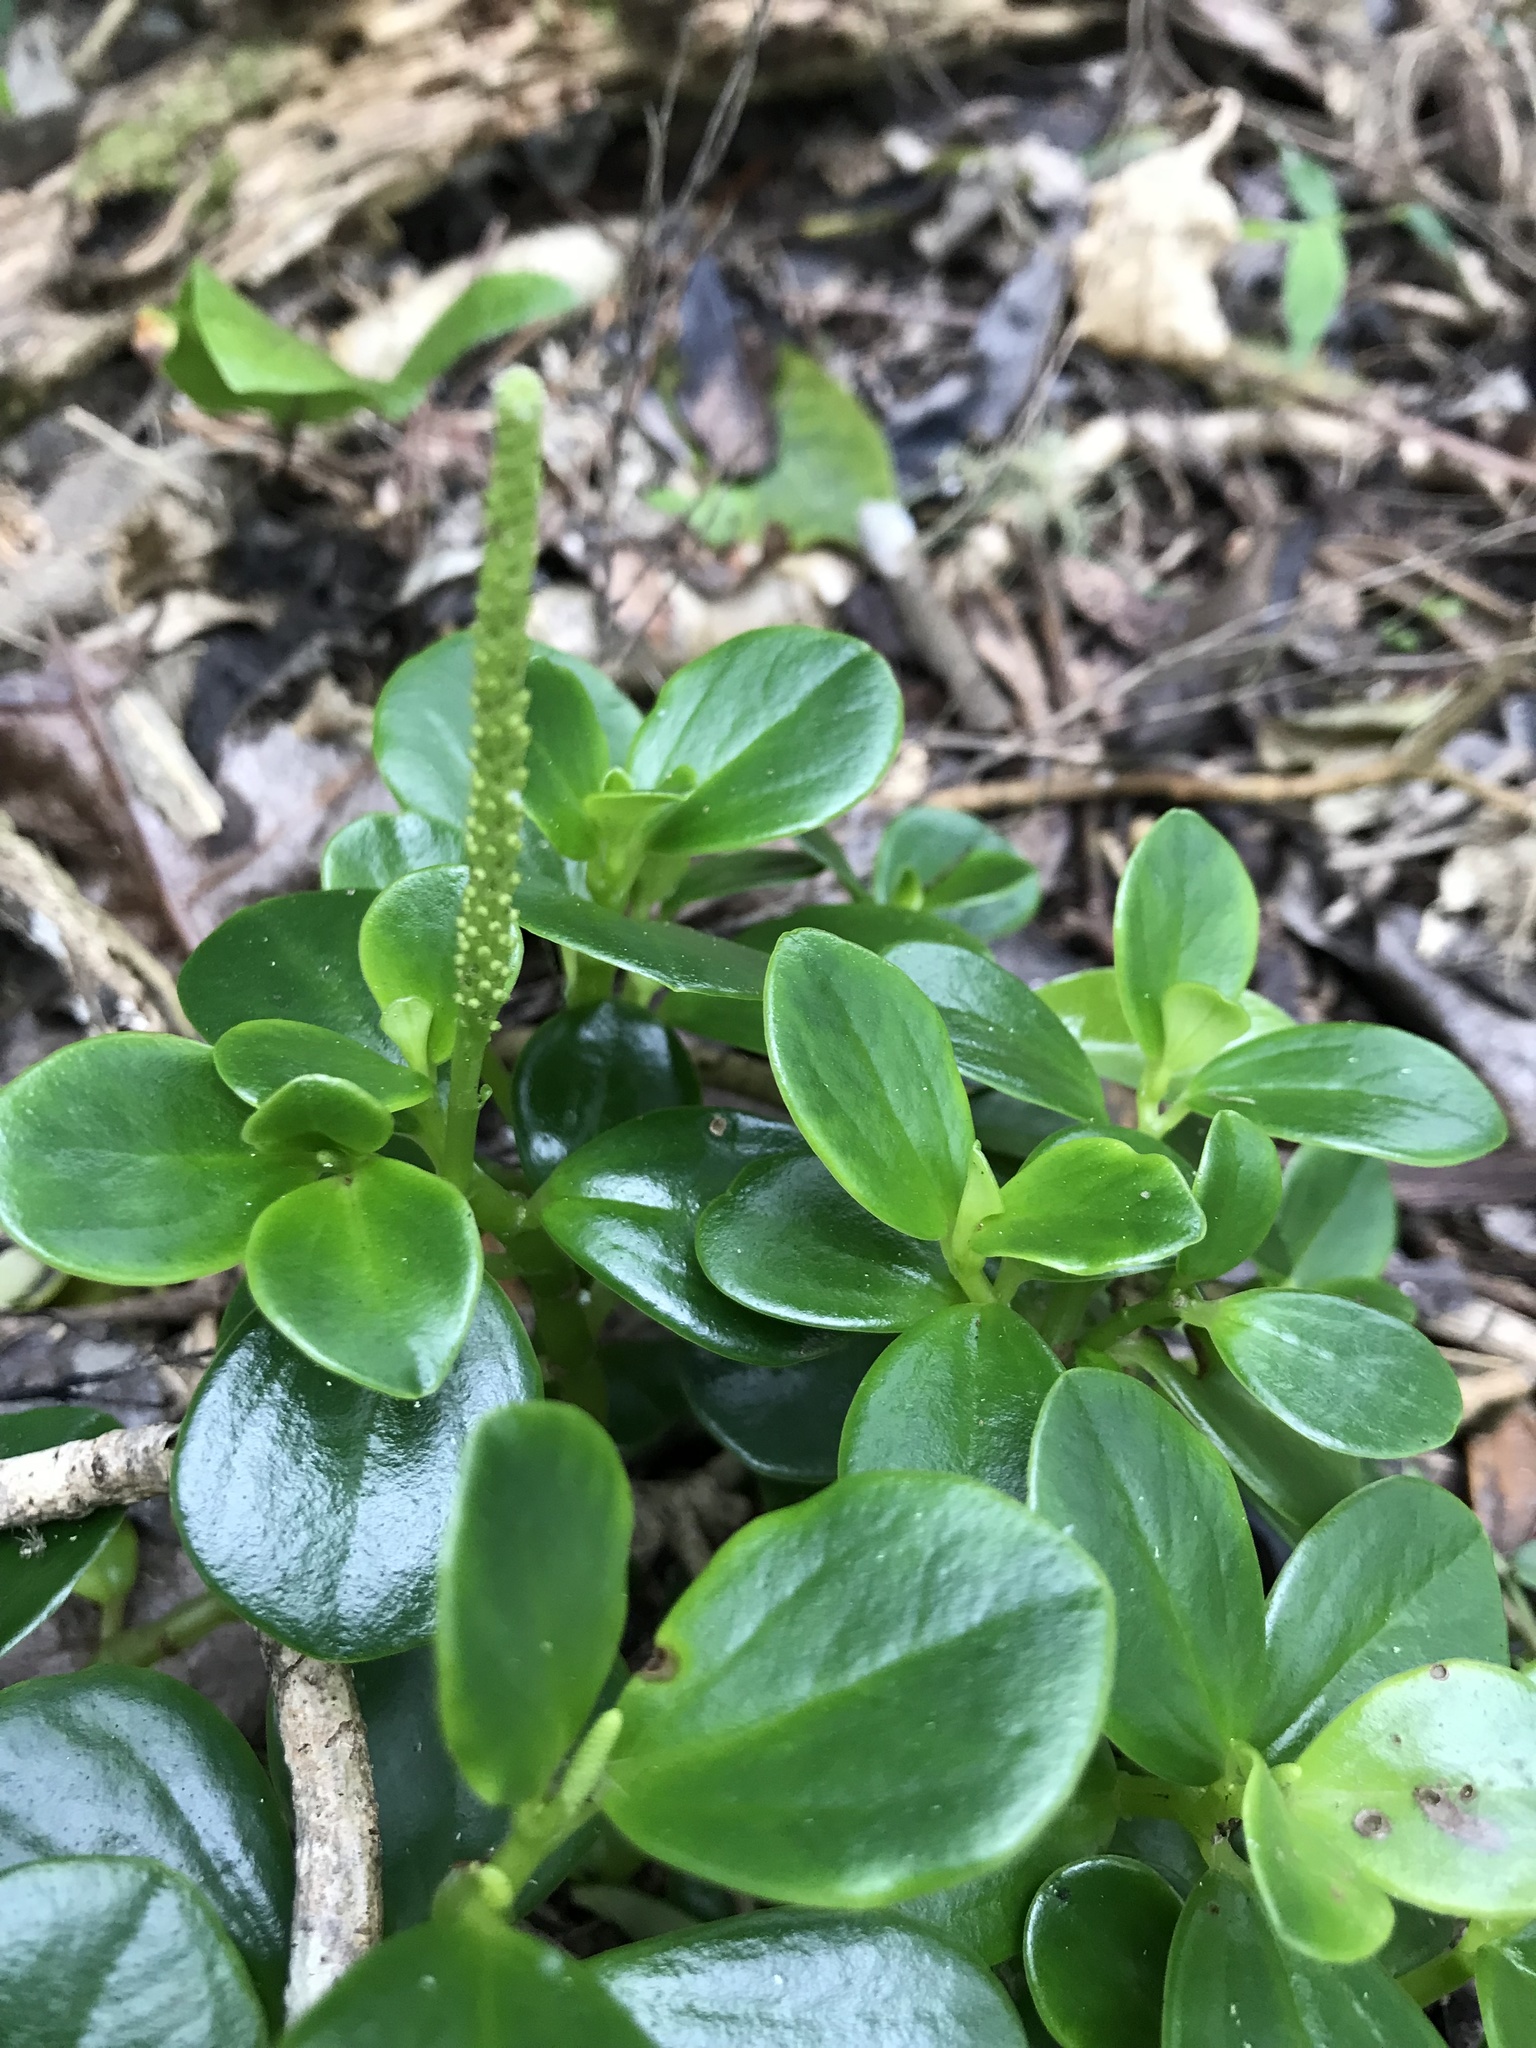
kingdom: Plantae
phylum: Tracheophyta
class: Magnoliopsida
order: Piperales
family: Piperaceae
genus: Peperomia
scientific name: Peperomia urvilleana
